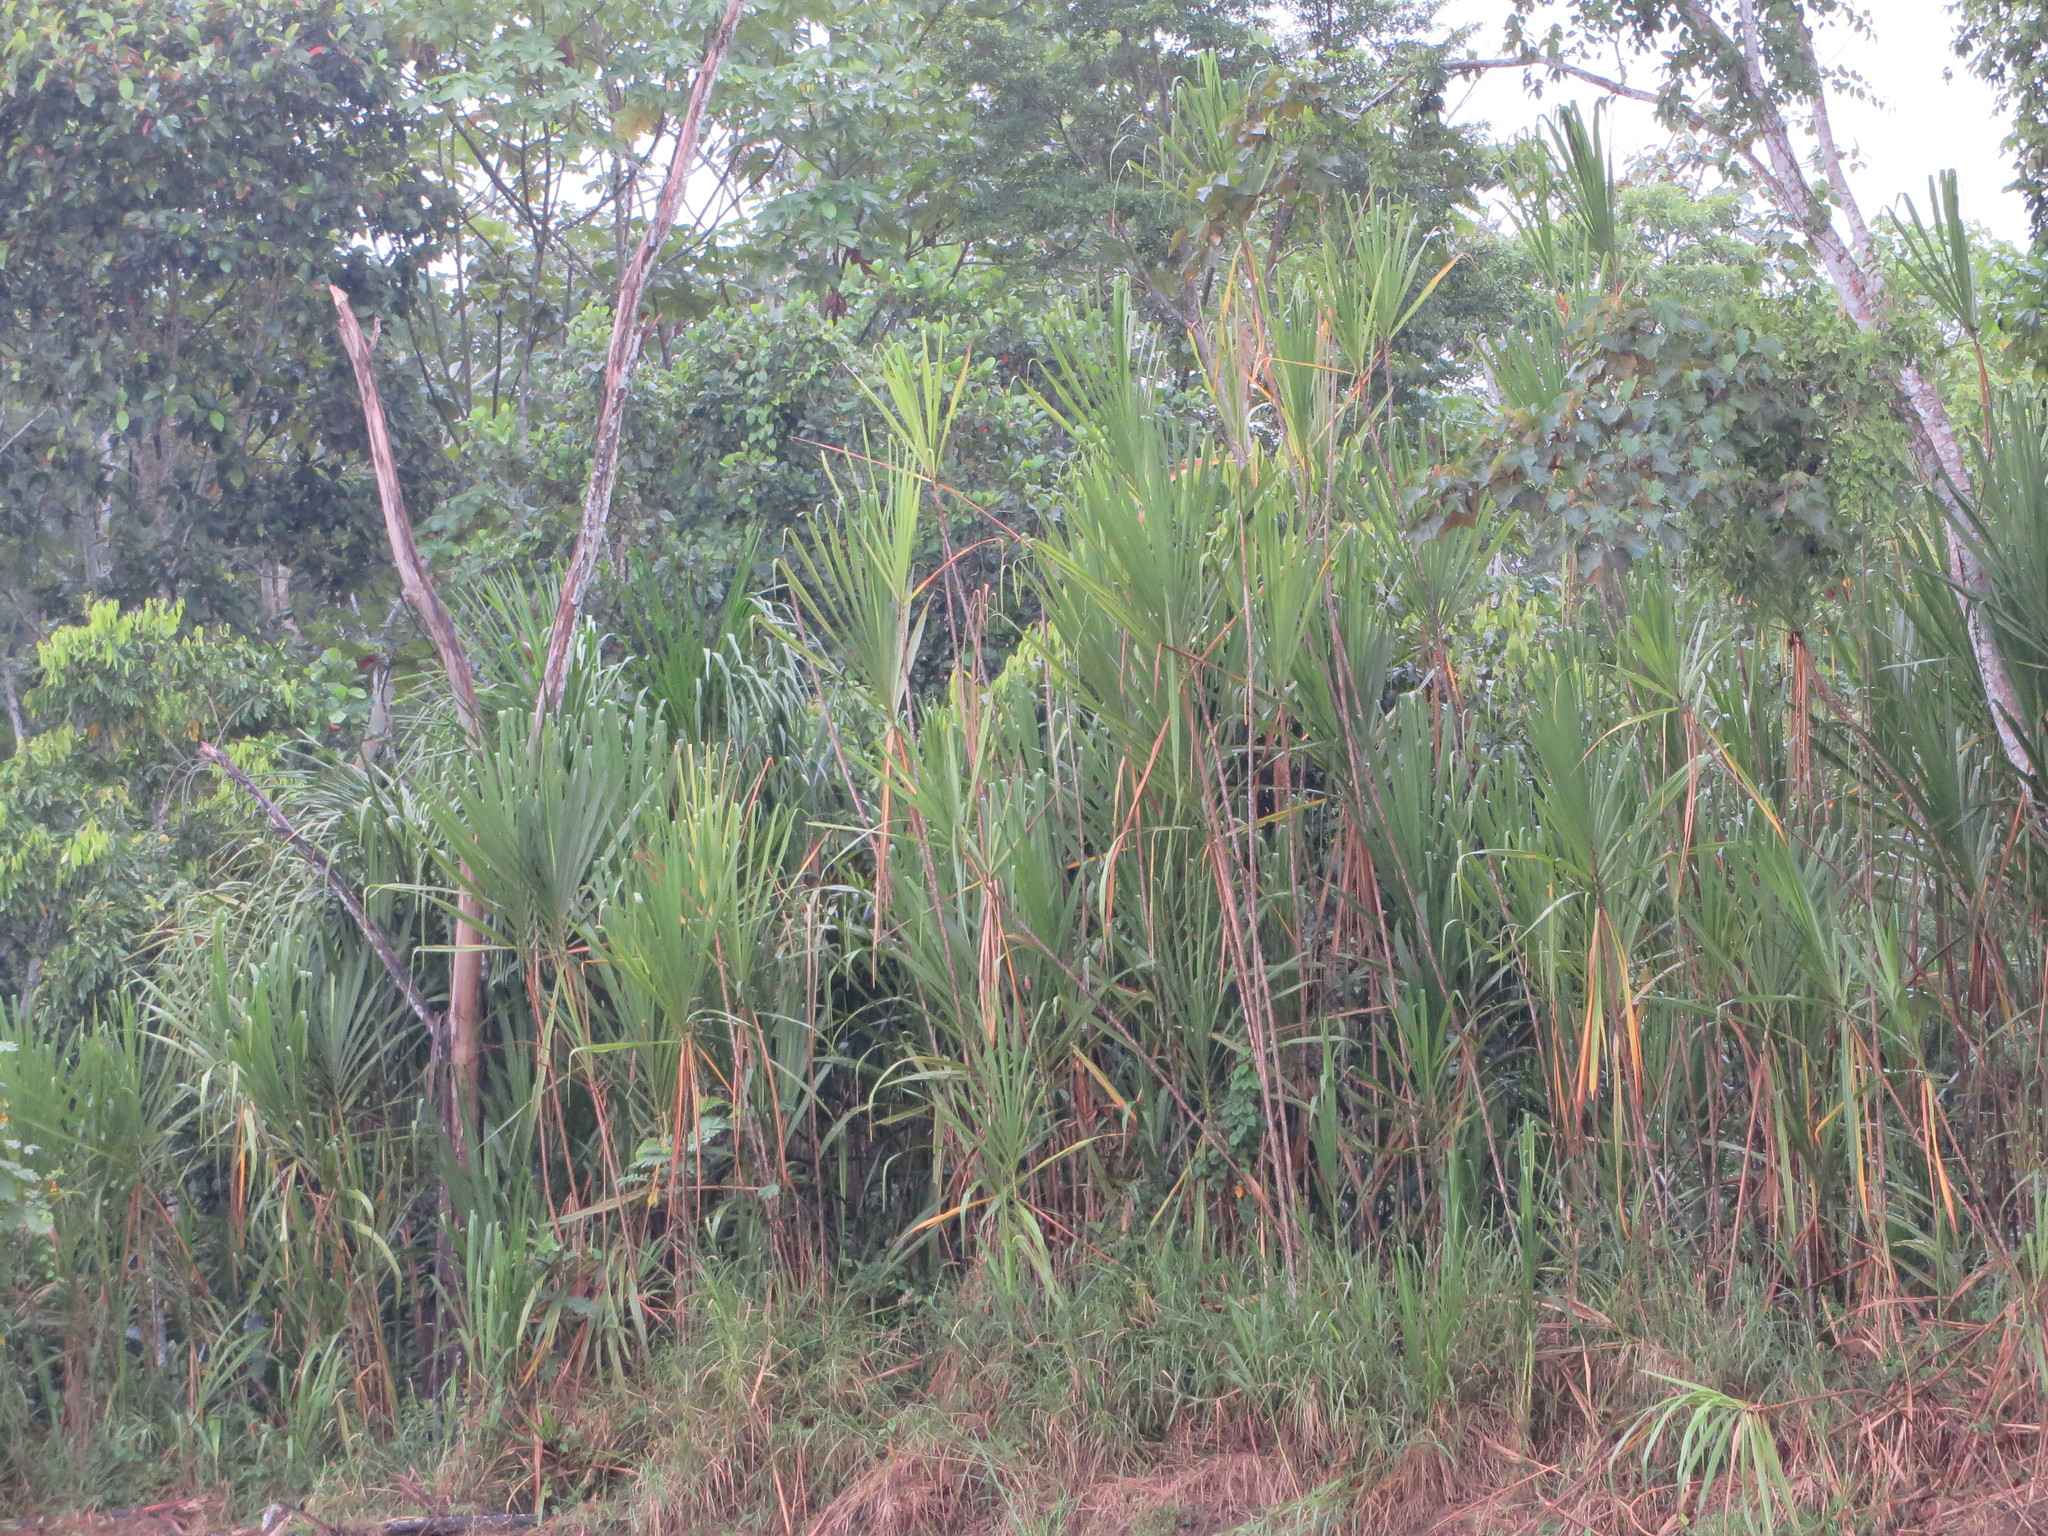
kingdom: Plantae
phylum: Tracheophyta
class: Liliopsida
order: Poales
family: Poaceae
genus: Gynerium
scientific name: Gynerium sagittatum
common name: Wild cane
